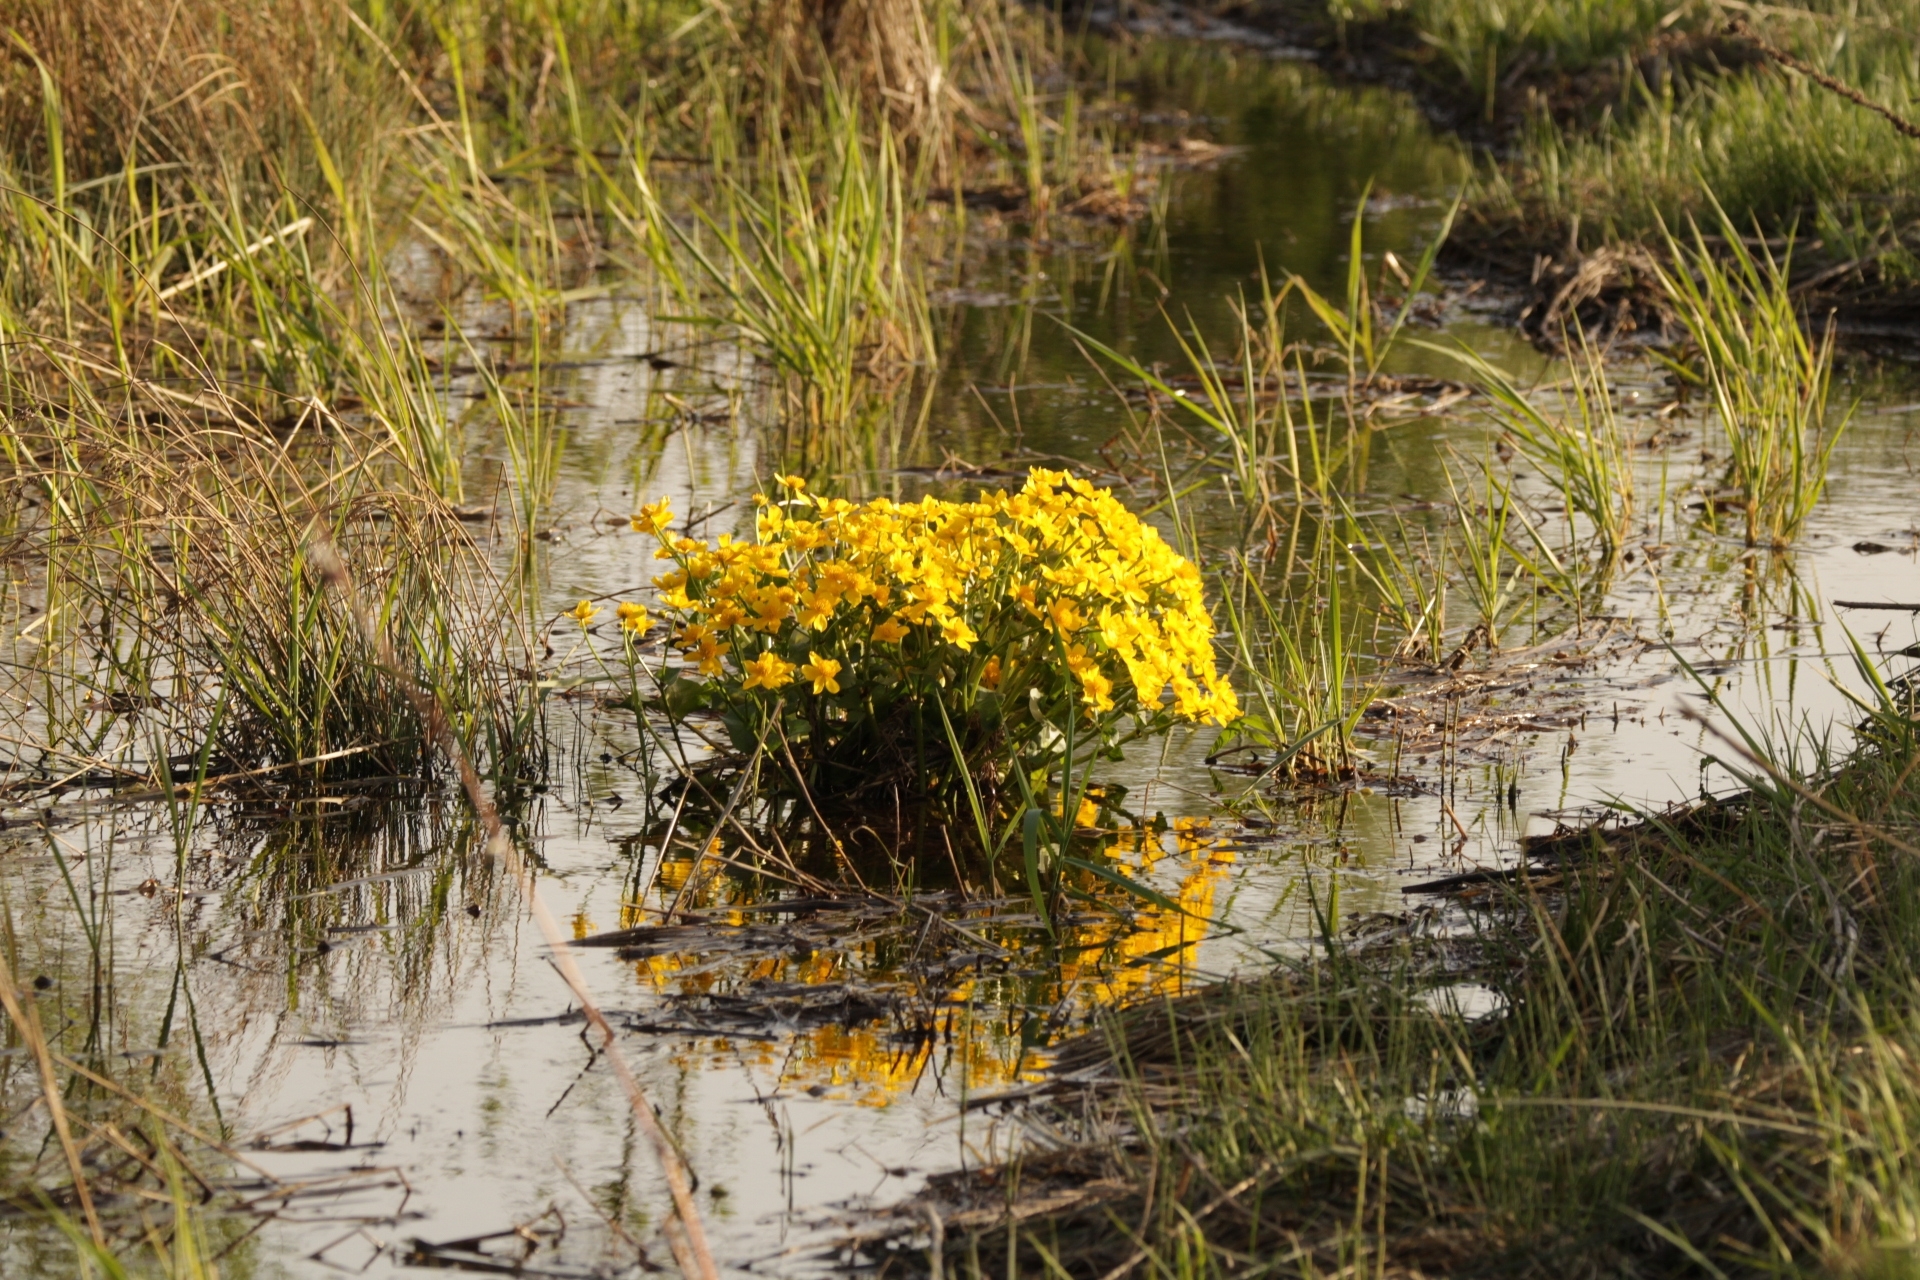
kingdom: Plantae
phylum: Tracheophyta
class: Magnoliopsida
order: Ranunculales
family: Ranunculaceae
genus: Caltha
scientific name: Caltha palustris
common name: Marsh marigold
